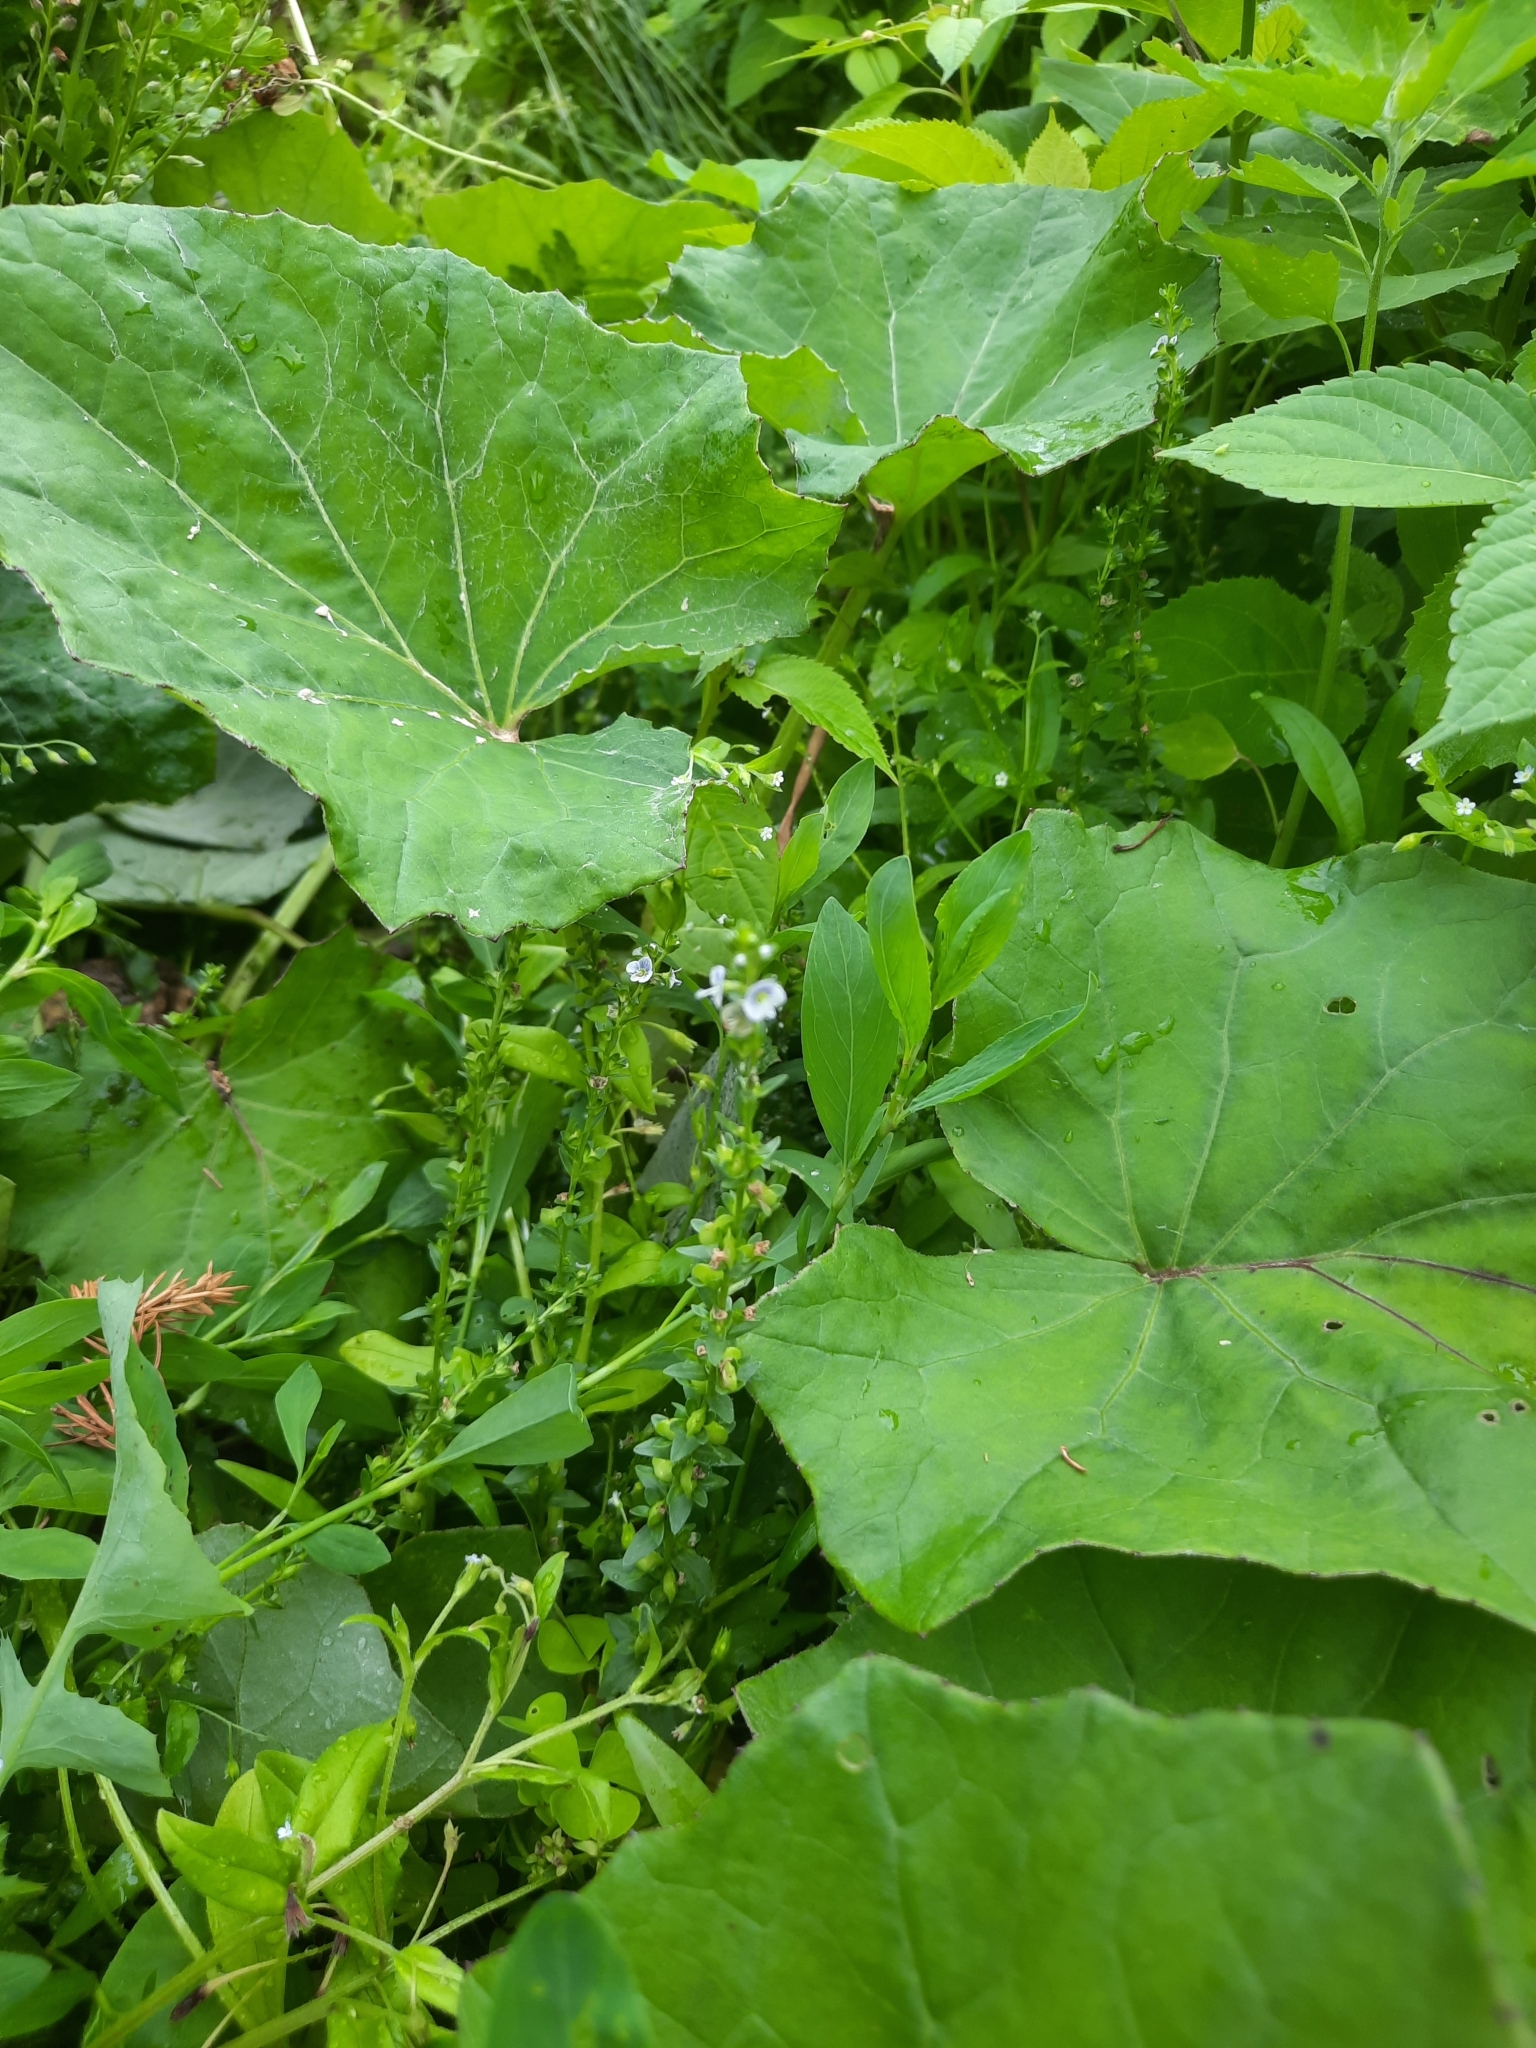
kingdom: Plantae
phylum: Tracheophyta
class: Magnoliopsida
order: Lamiales
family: Plantaginaceae
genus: Veronica
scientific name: Veronica serpyllifolia
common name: Thyme-leaved speedwell
